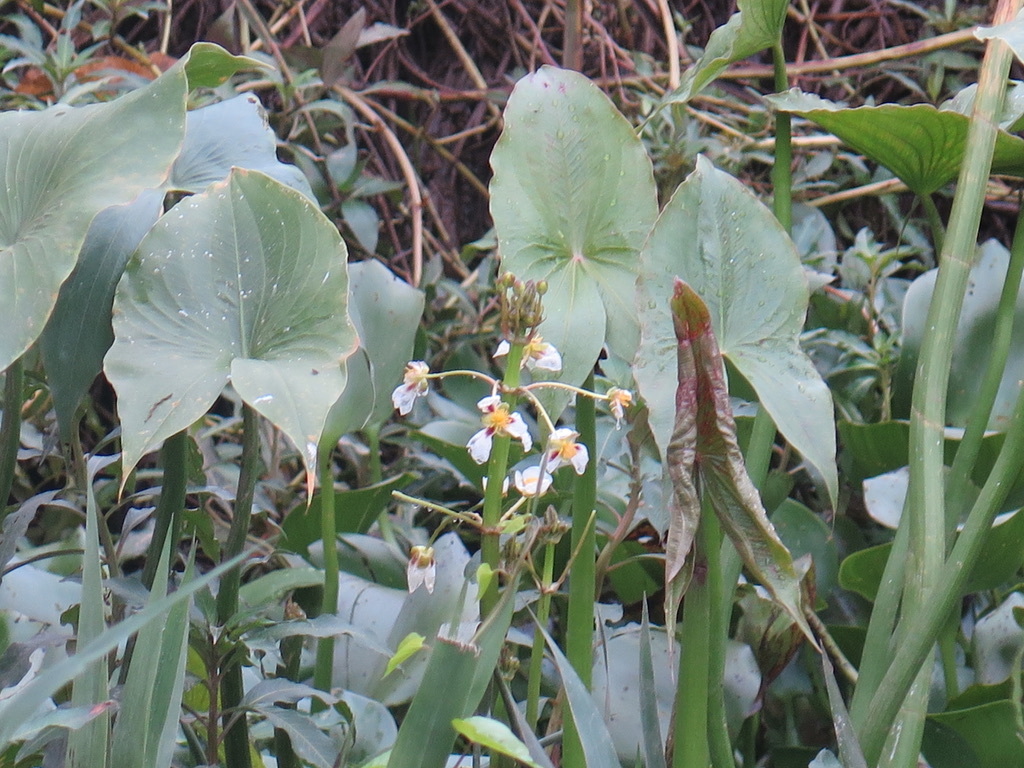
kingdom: Plantae
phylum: Tracheophyta
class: Liliopsida
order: Alismatales
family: Alismataceae
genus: Sagittaria
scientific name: Sagittaria montevidensis
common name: Giant arrowhead
